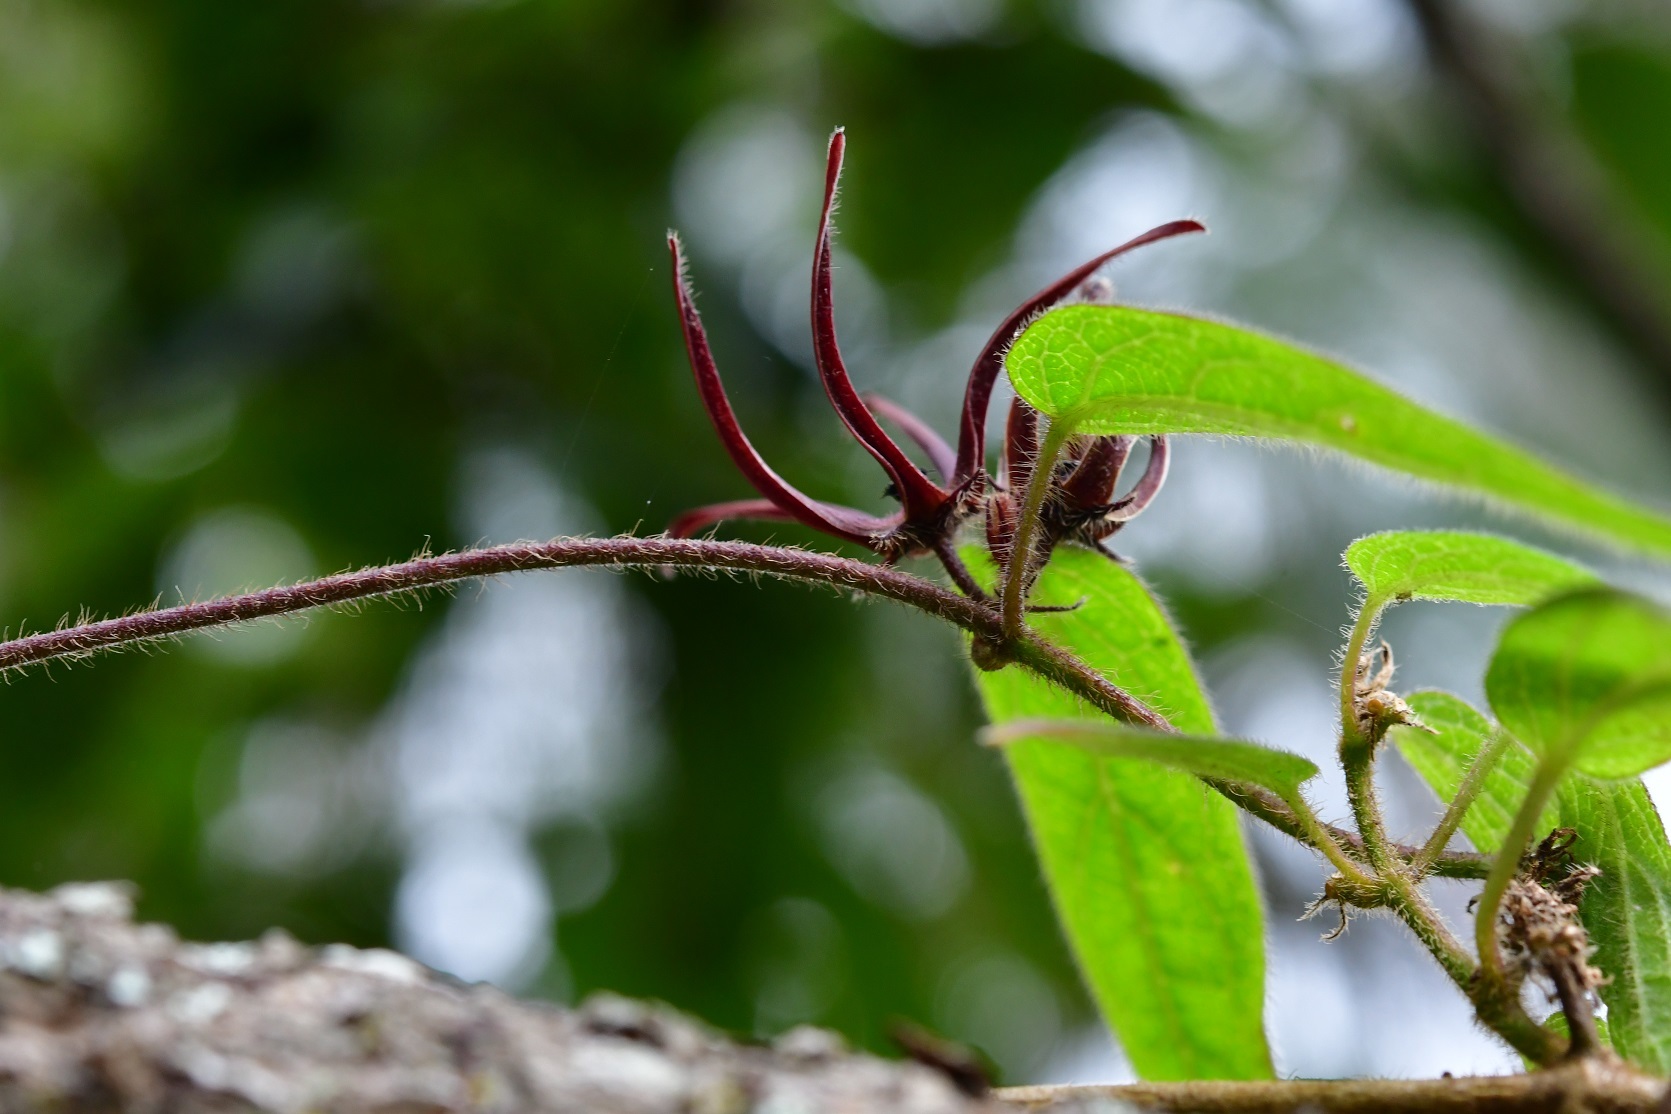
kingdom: Plantae
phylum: Tracheophyta
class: Magnoliopsida
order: Gentianales
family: Apocynaceae
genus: Matelea
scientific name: Matelea medusae
